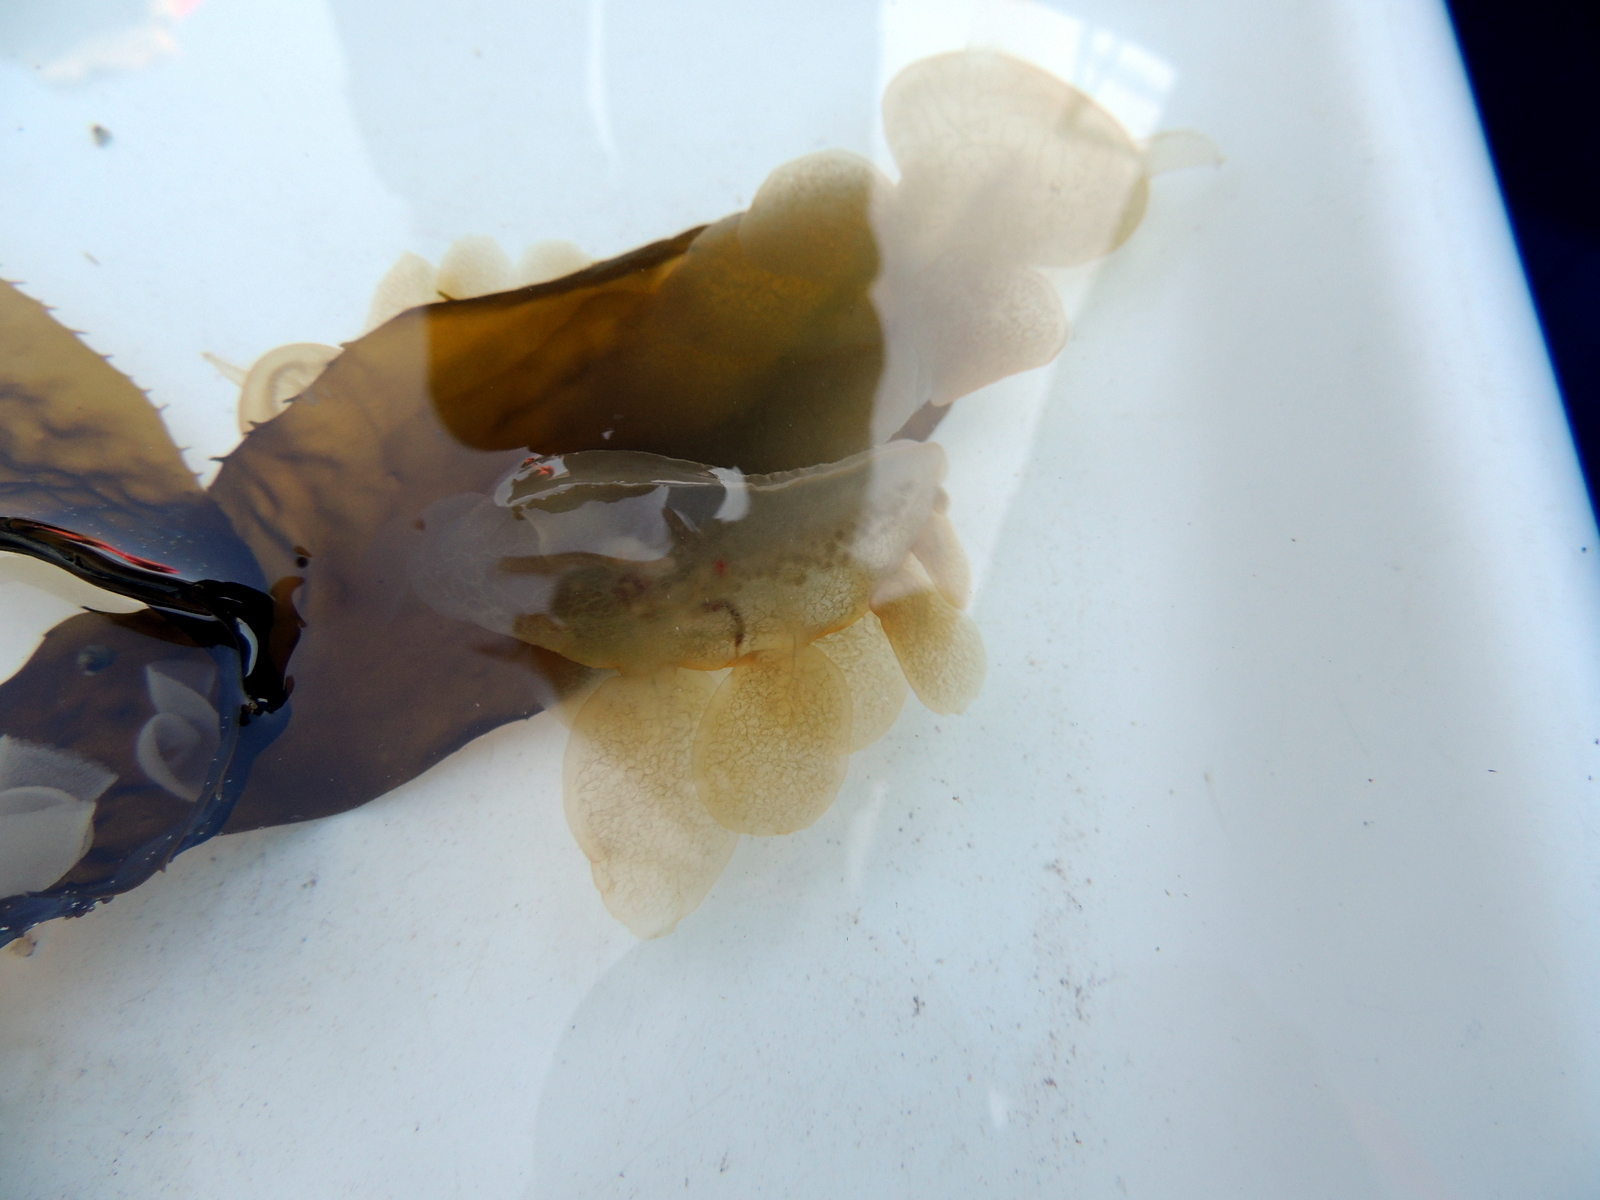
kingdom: Animalia
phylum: Mollusca
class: Gastropoda
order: Nudibranchia
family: Tethydidae
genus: Melibe
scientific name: Melibe leonina
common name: Lion nudibranch
